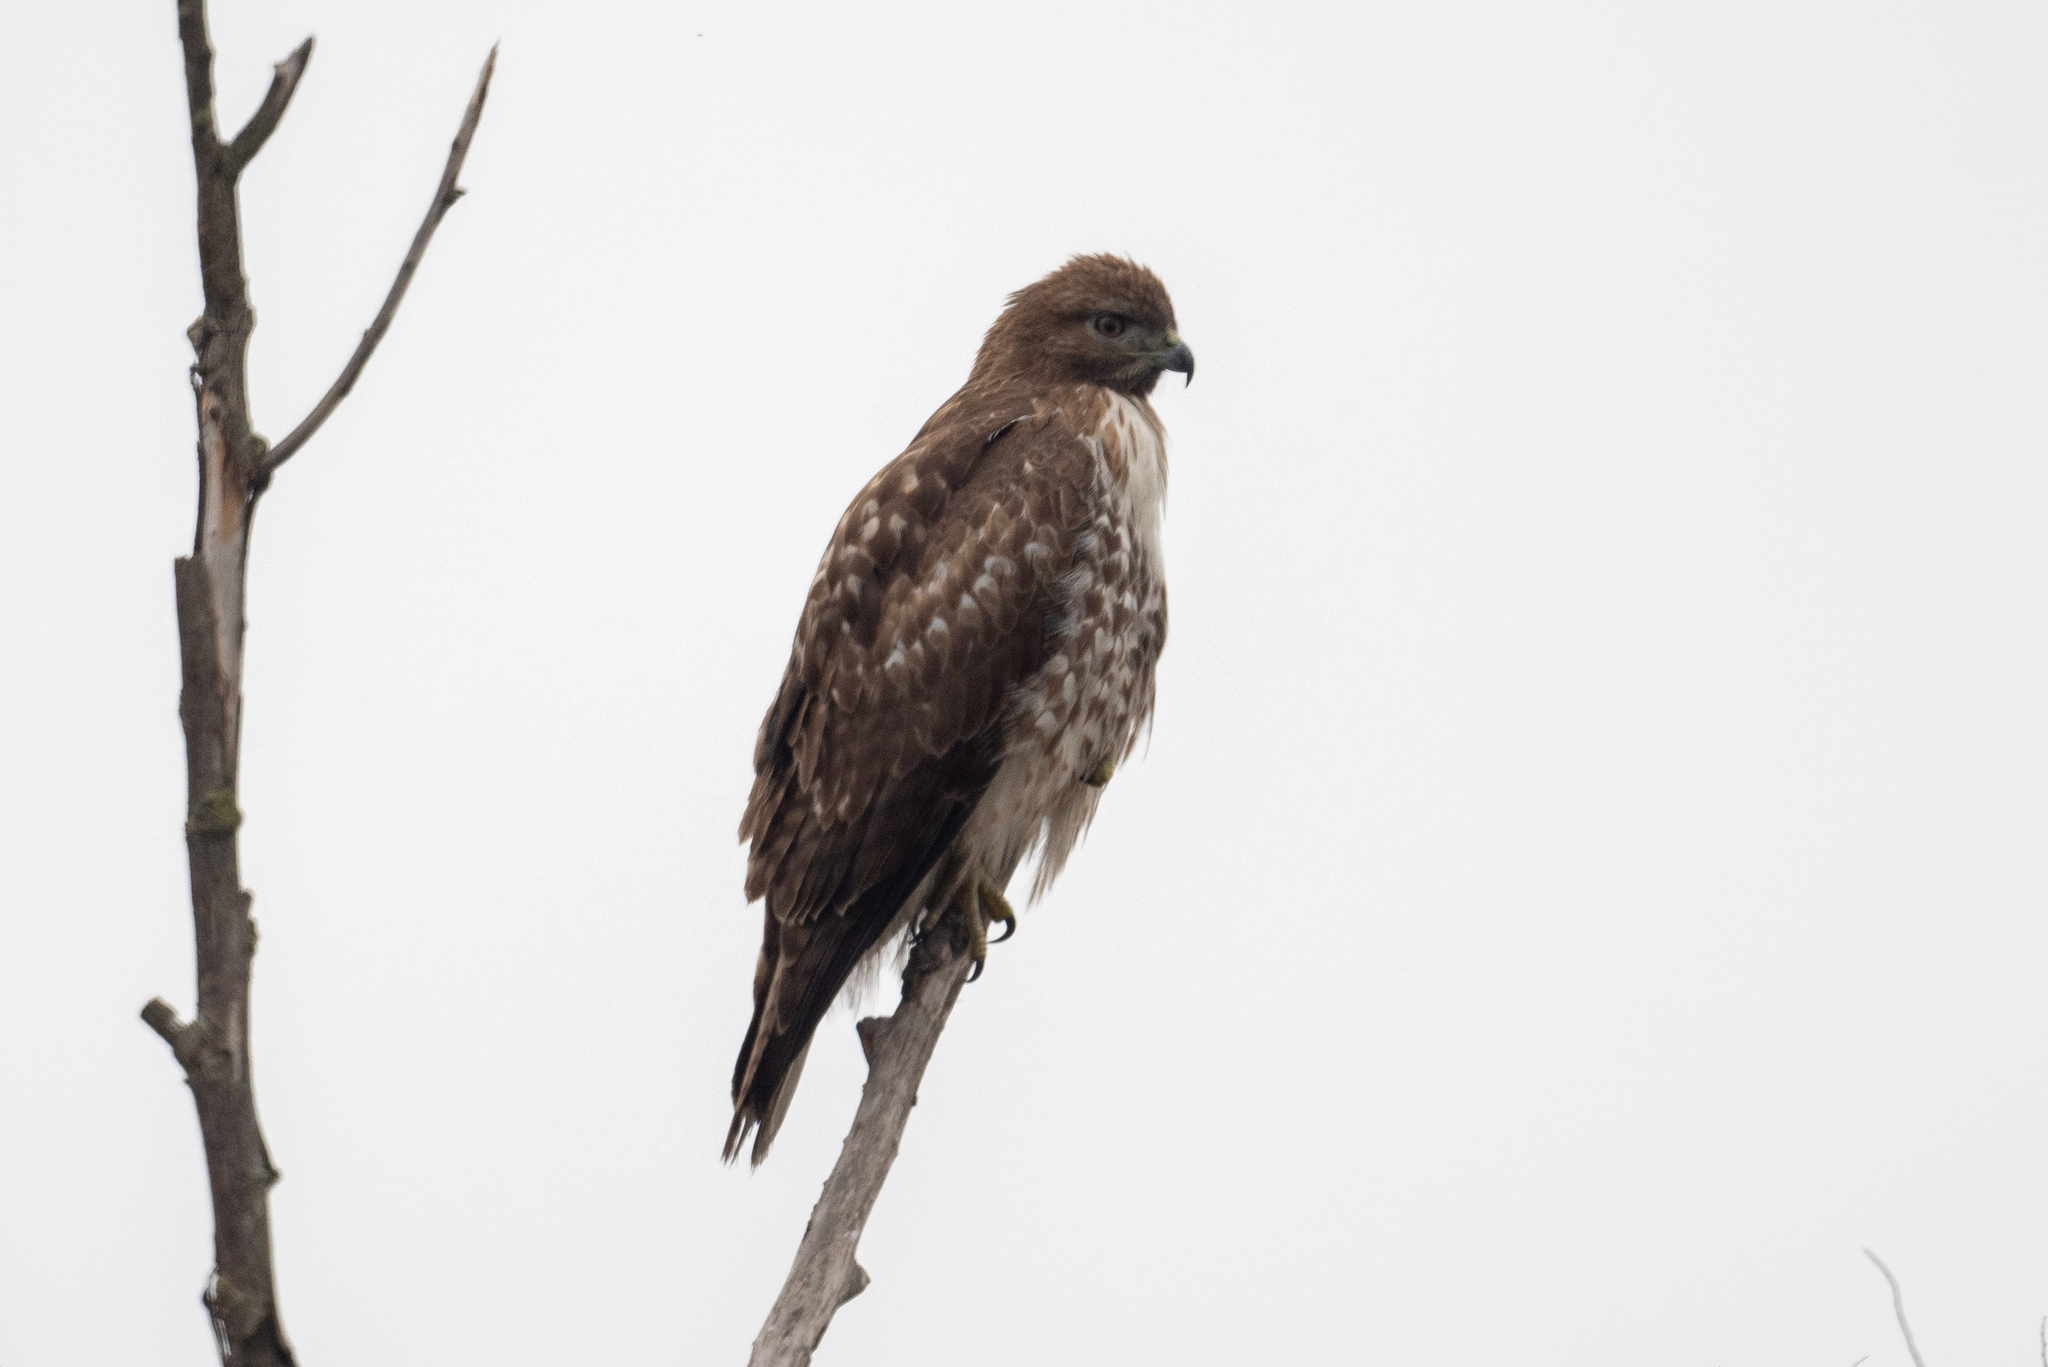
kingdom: Animalia
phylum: Chordata
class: Aves
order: Accipitriformes
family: Accipitridae
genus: Buteo
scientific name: Buteo jamaicensis
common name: Red-tailed hawk
